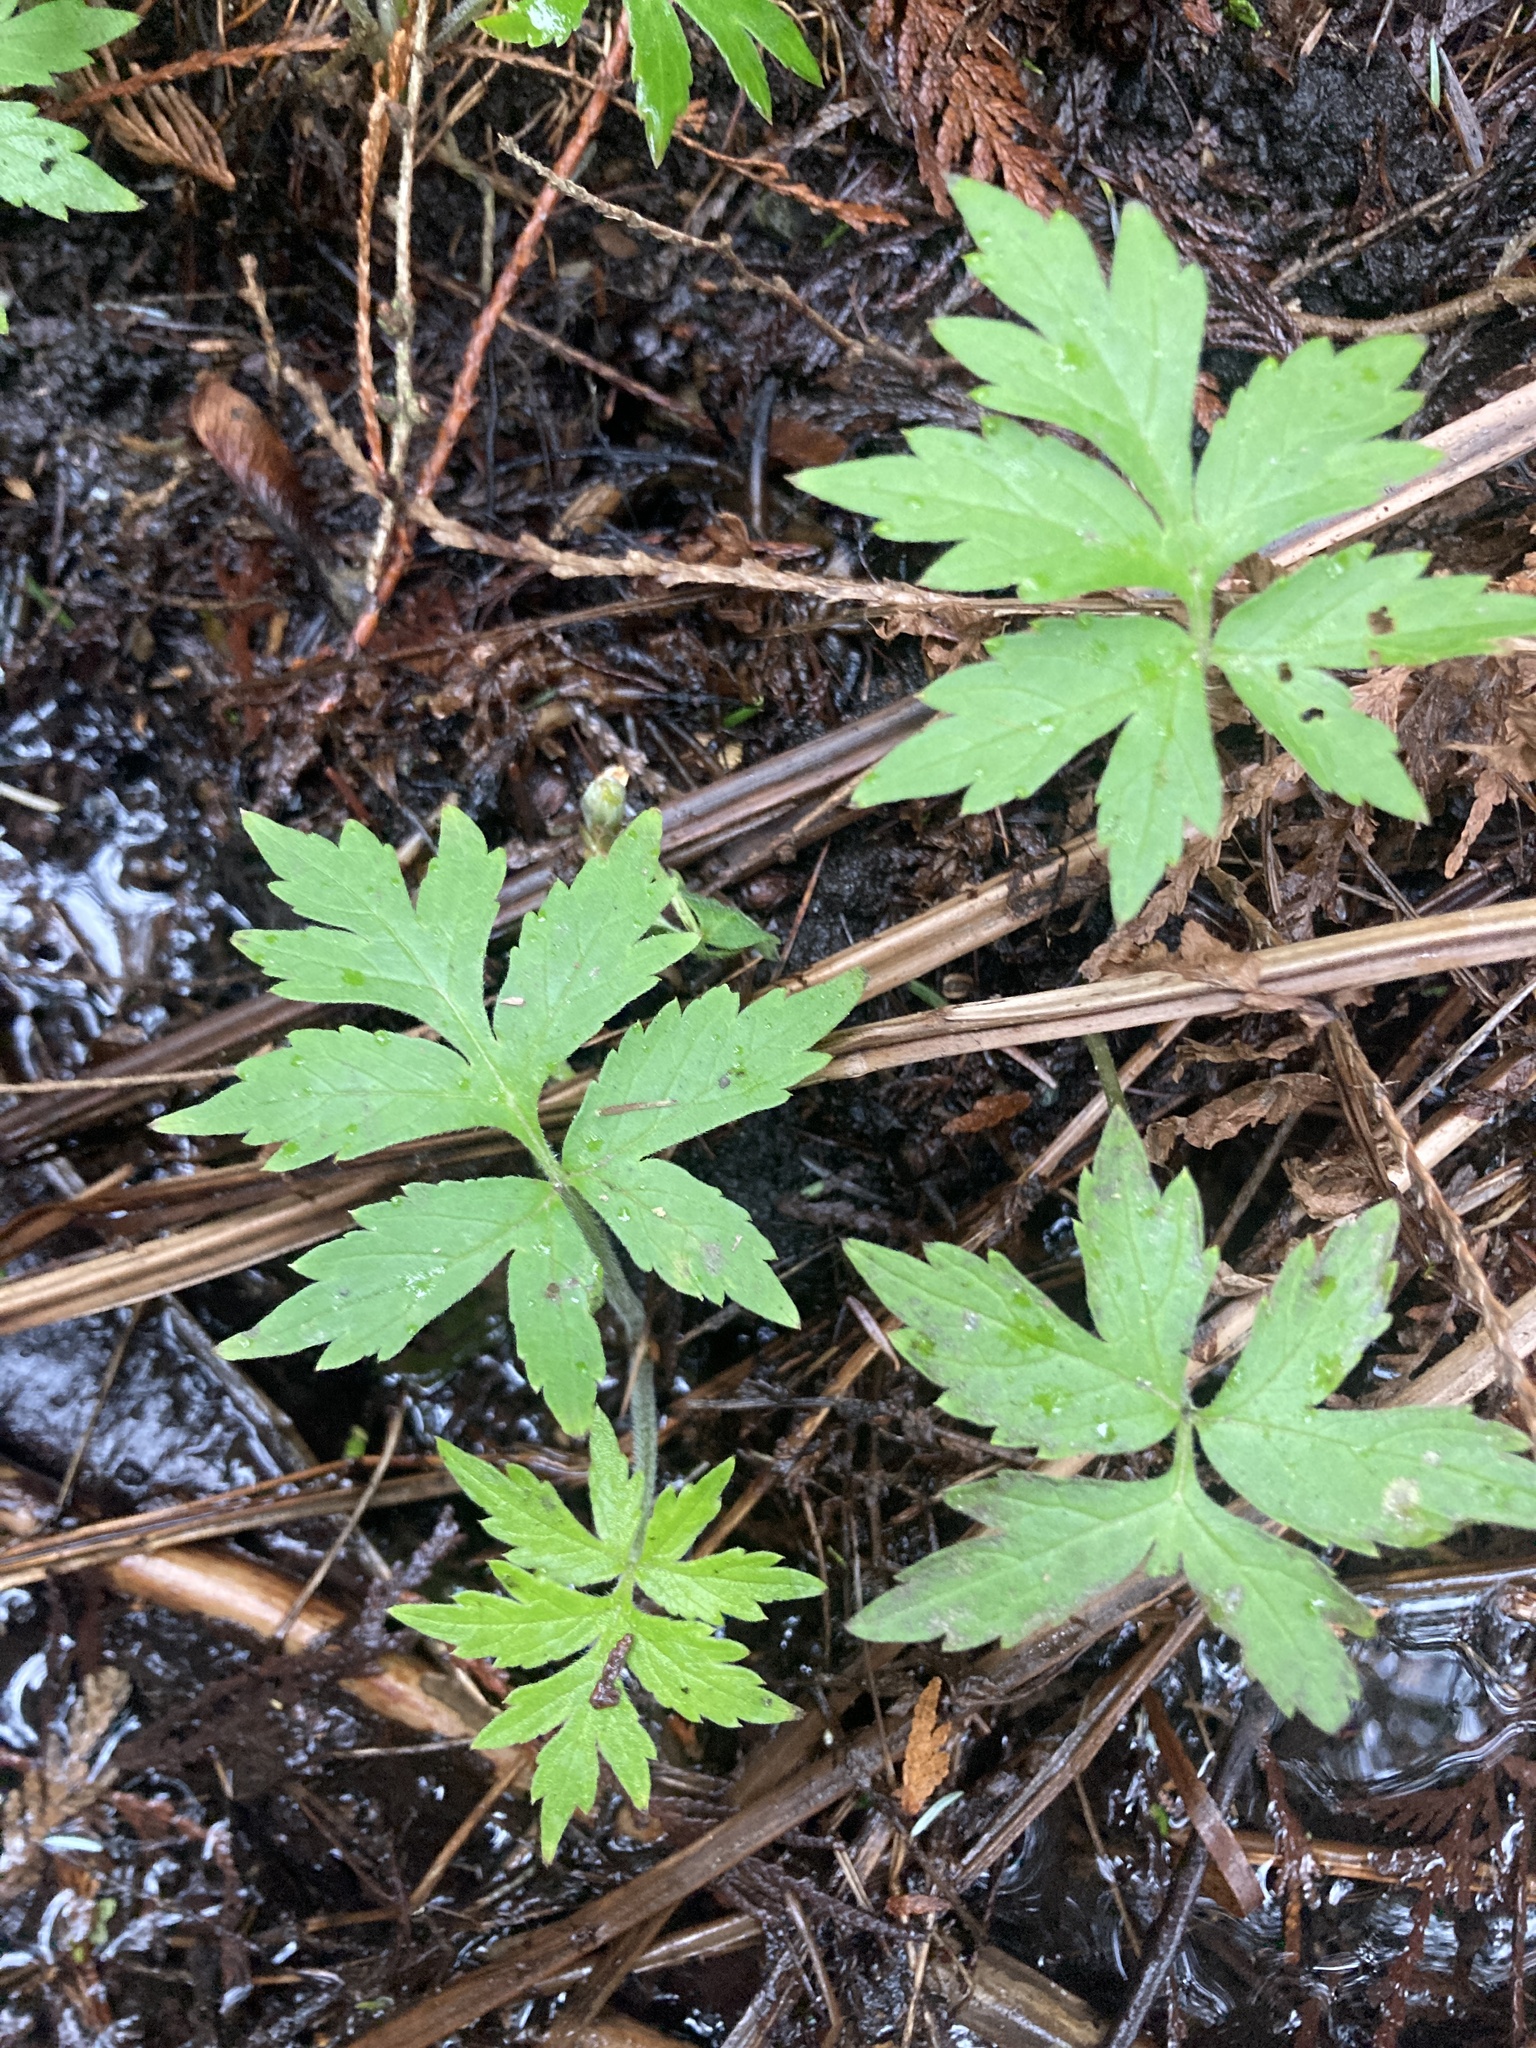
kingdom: Plantae
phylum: Tracheophyta
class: Magnoliopsida
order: Boraginales
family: Hydrophyllaceae
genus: Hydrophyllum
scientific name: Hydrophyllum tenuipes
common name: Pacific waterleaf
